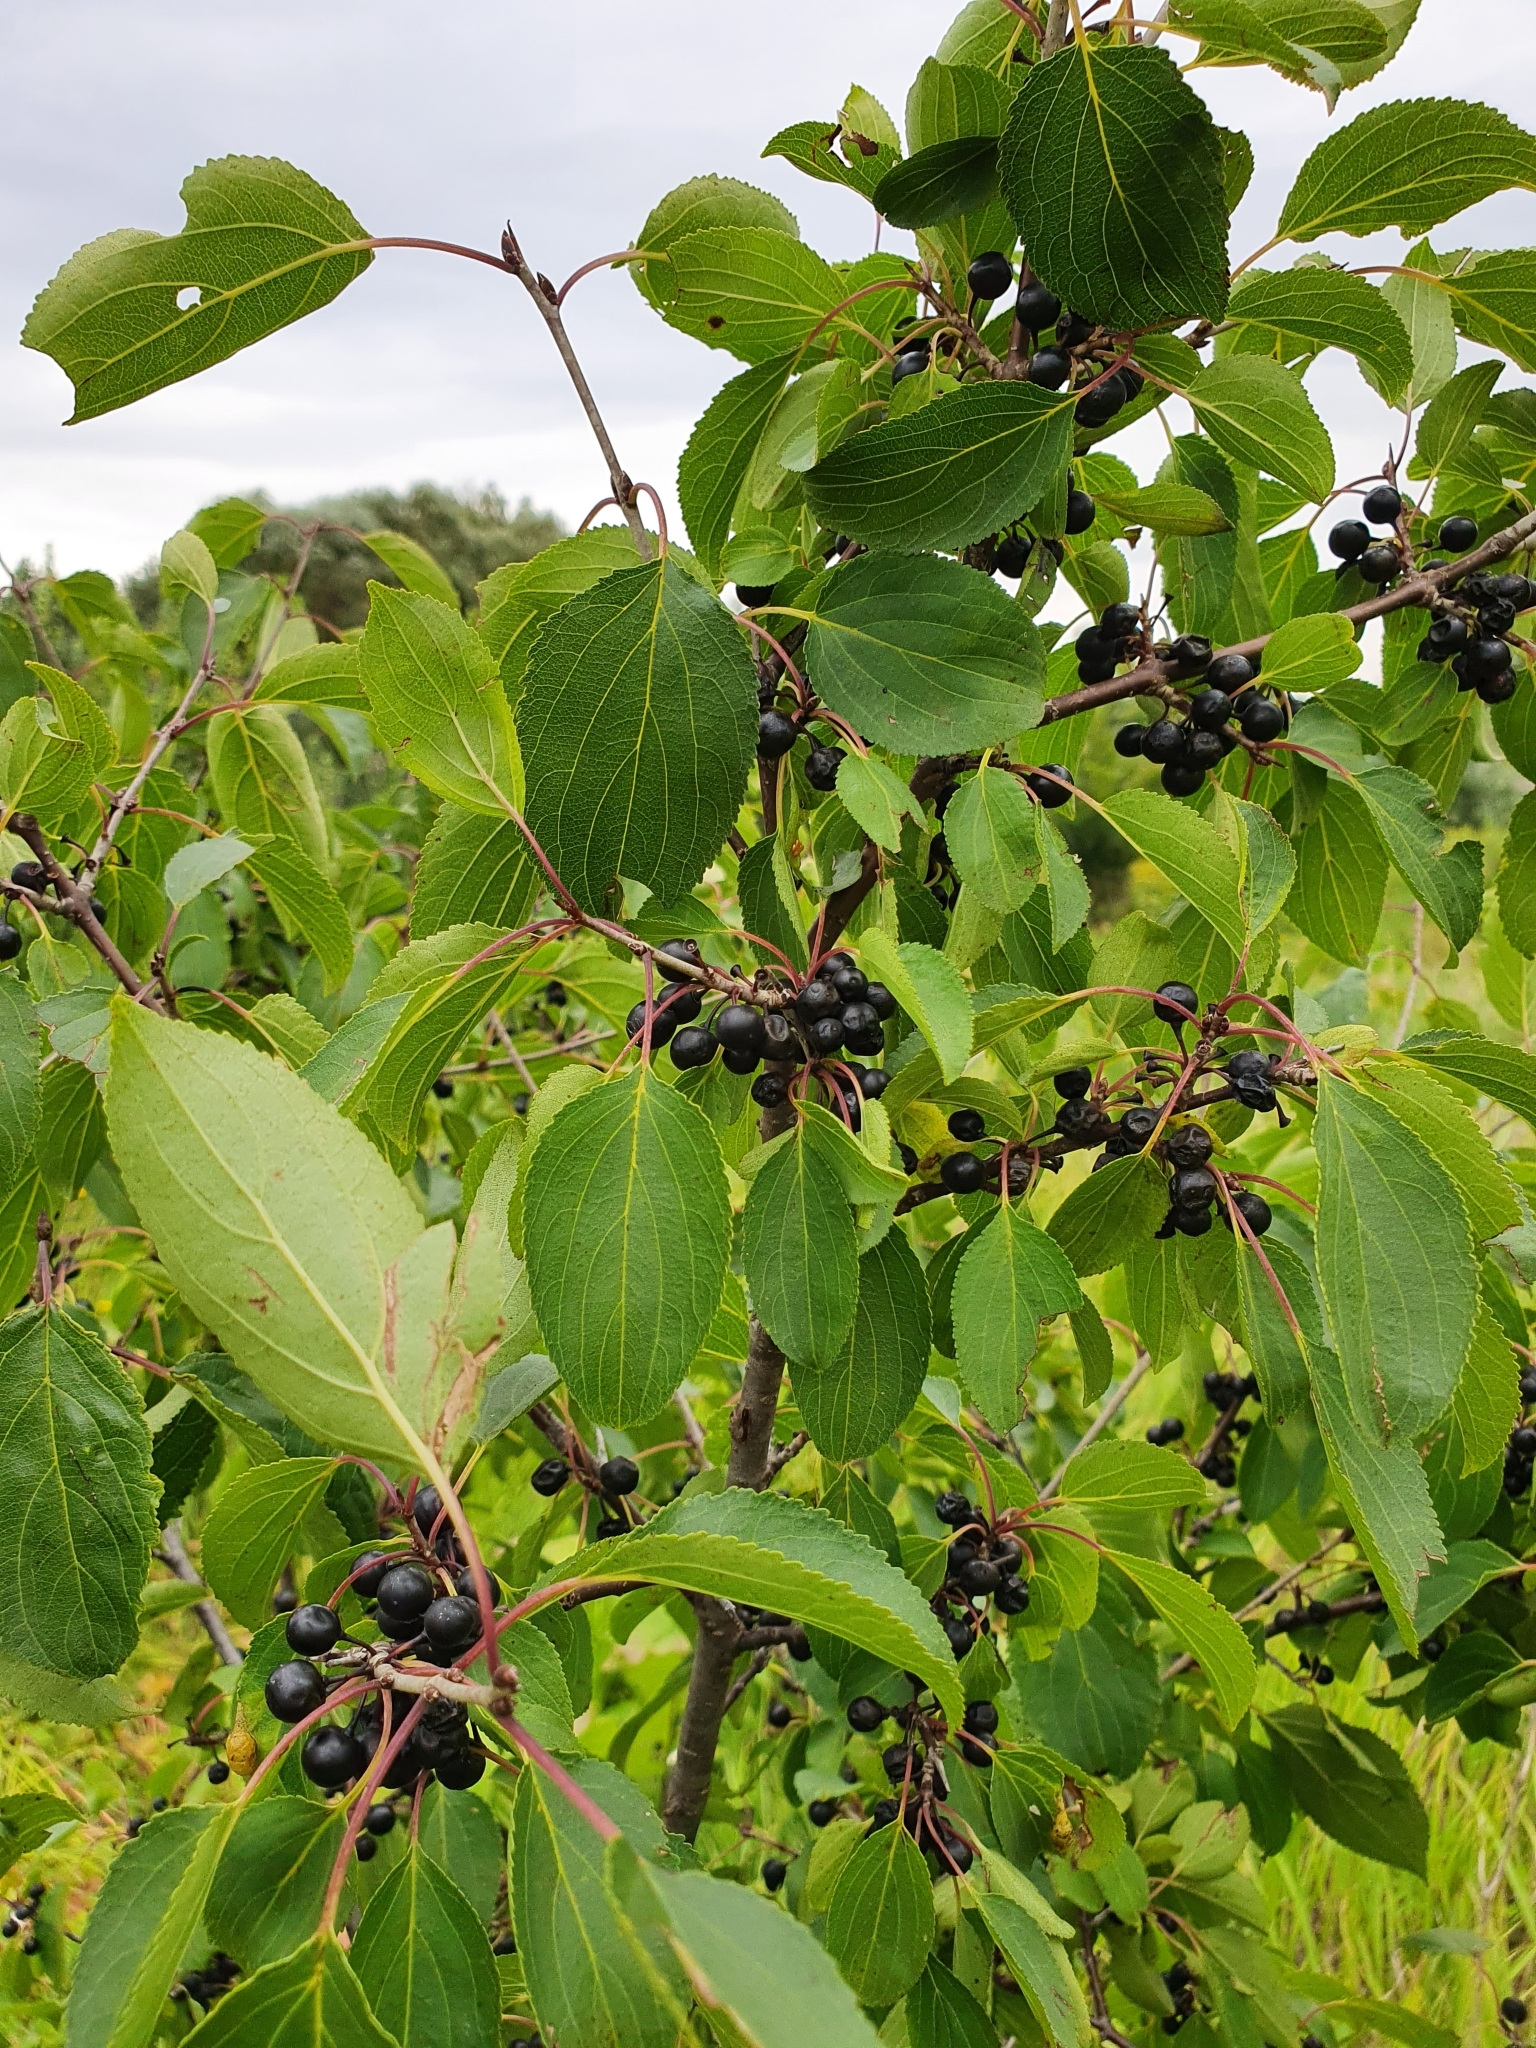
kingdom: Plantae
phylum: Tracheophyta
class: Magnoliopsida
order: Rosales
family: Rhamnaceae
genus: Rhamnus
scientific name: Rhamnus cathartica
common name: Common buckthorn
